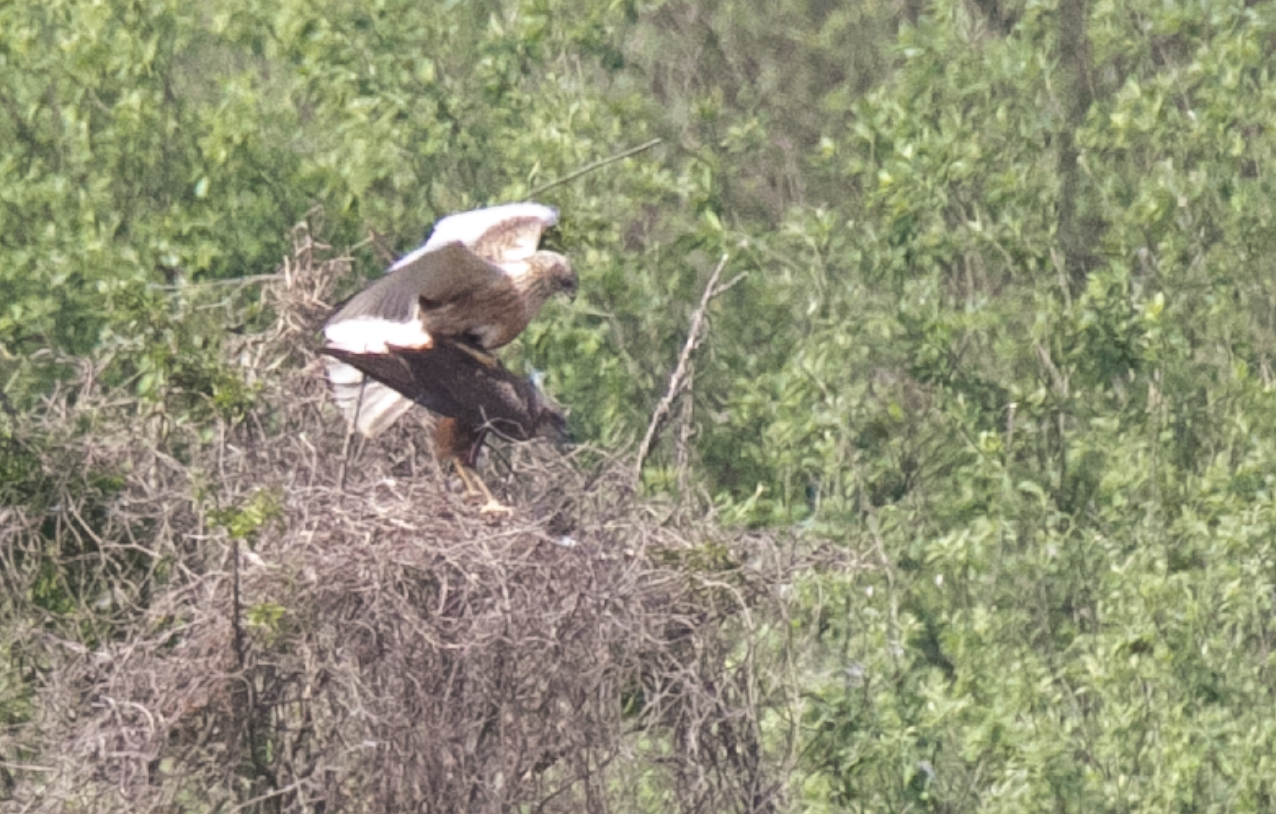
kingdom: Animalia
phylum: Chordata
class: Aves
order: Accipitriformes
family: Accipitridae
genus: Circus
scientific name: Circus aeruginosus
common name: Western marsh harrier
